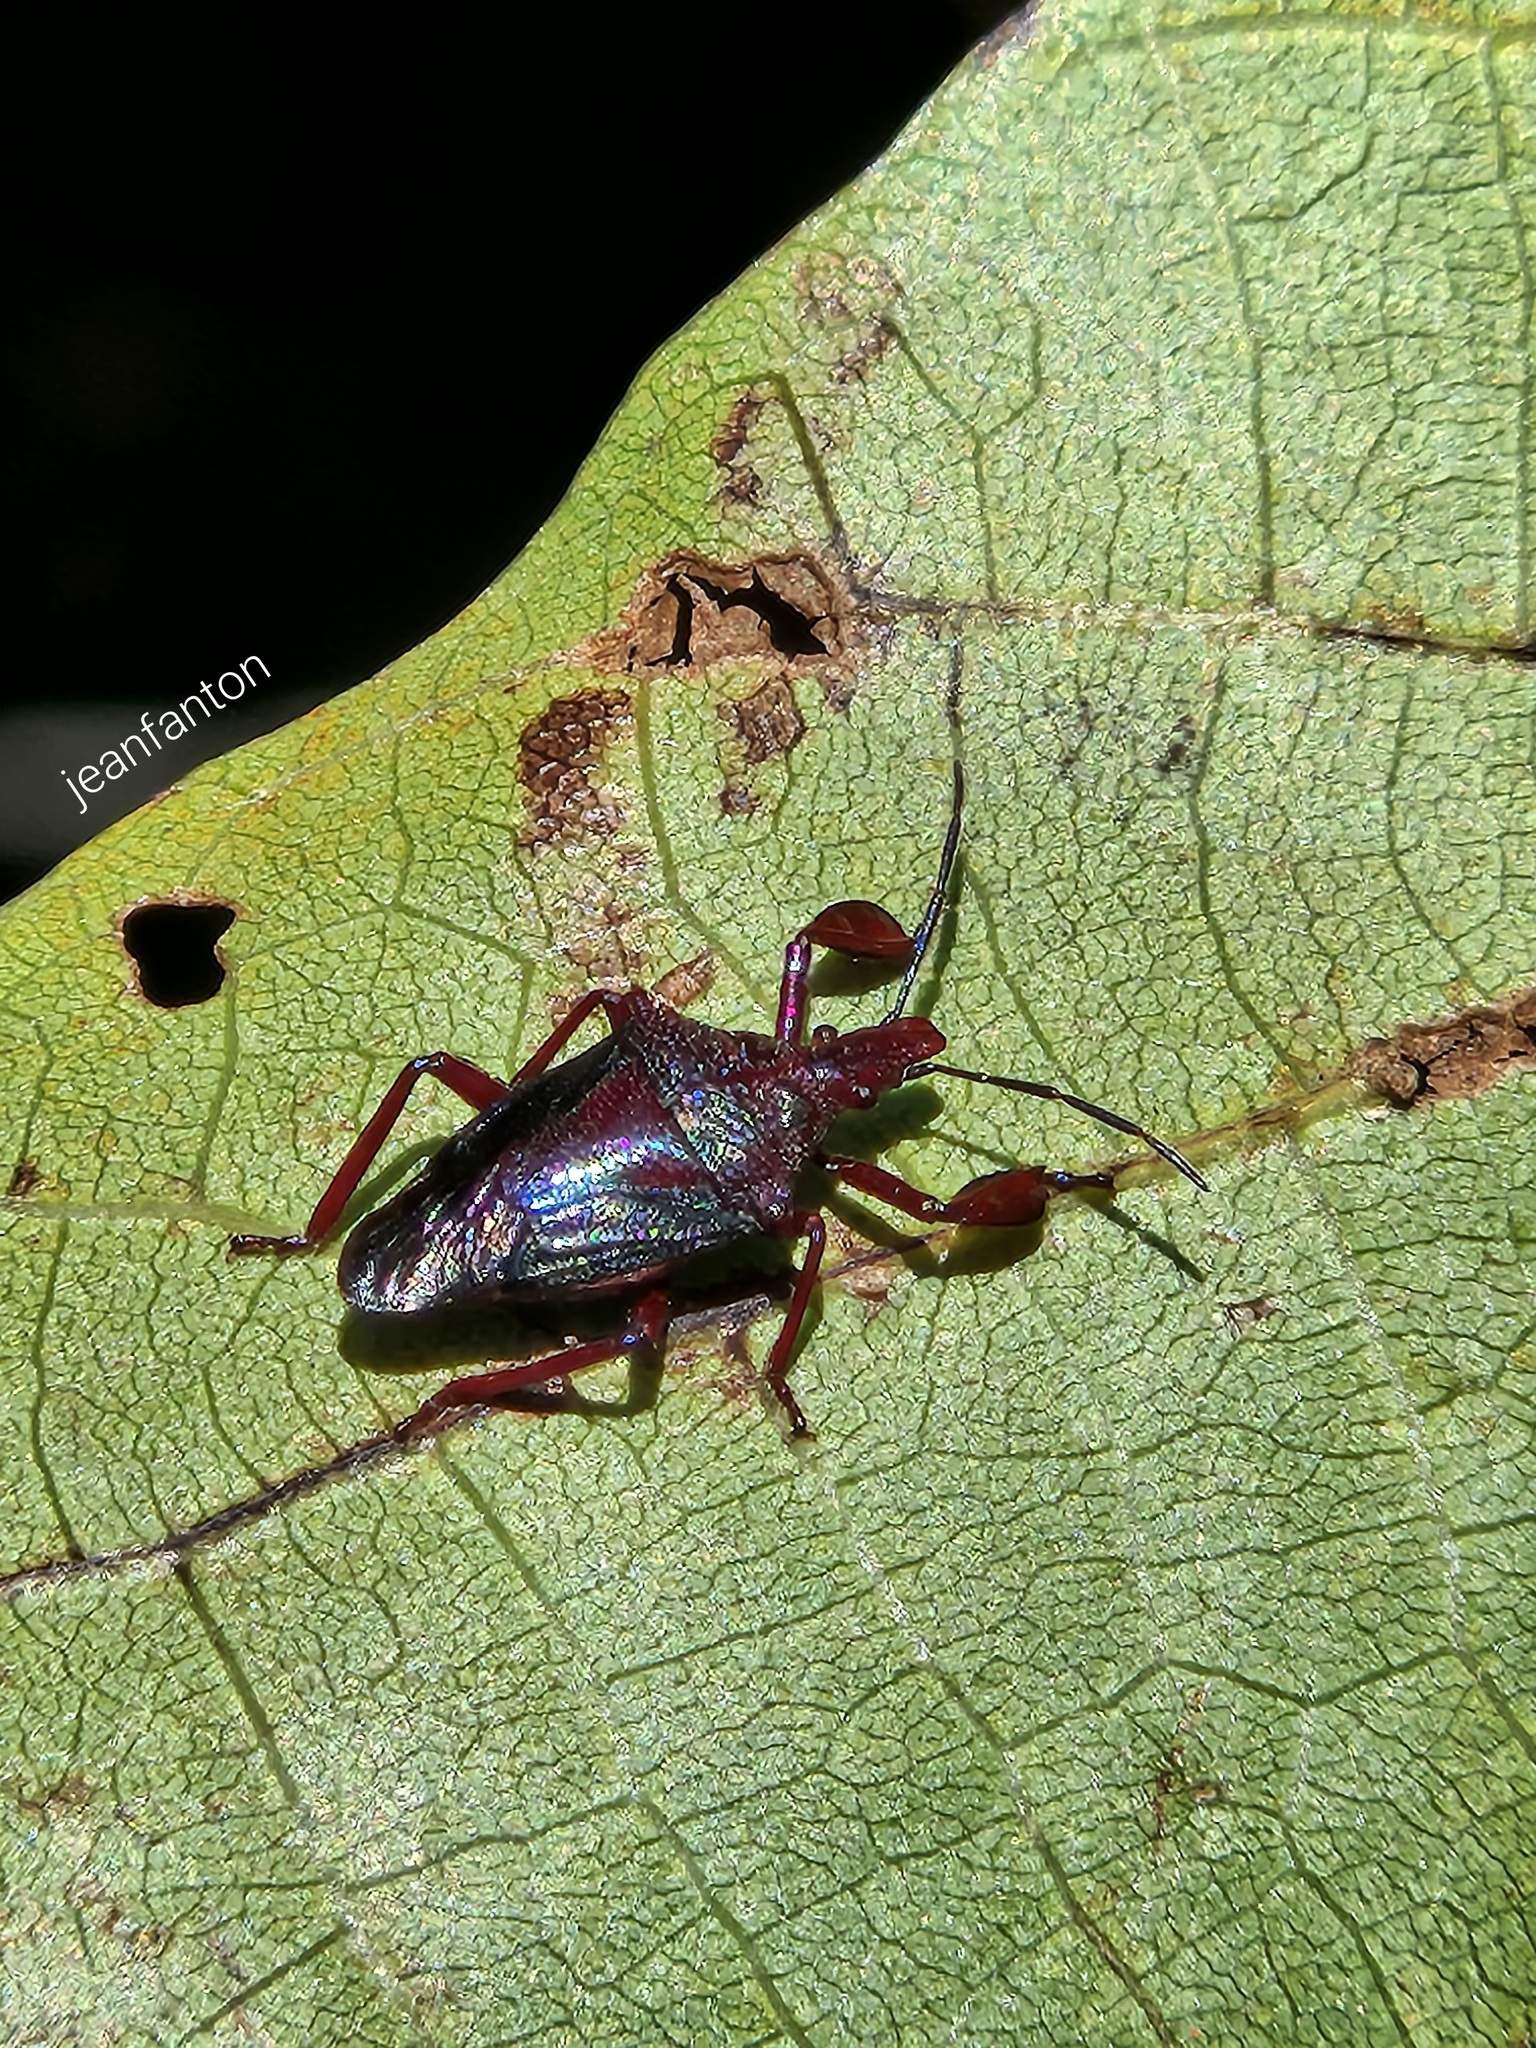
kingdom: Animalia
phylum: Arthropoda
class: Insecta
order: Hemiptera
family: Pentatomidae
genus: Heteroscelis
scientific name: Heteroscelis servillii
